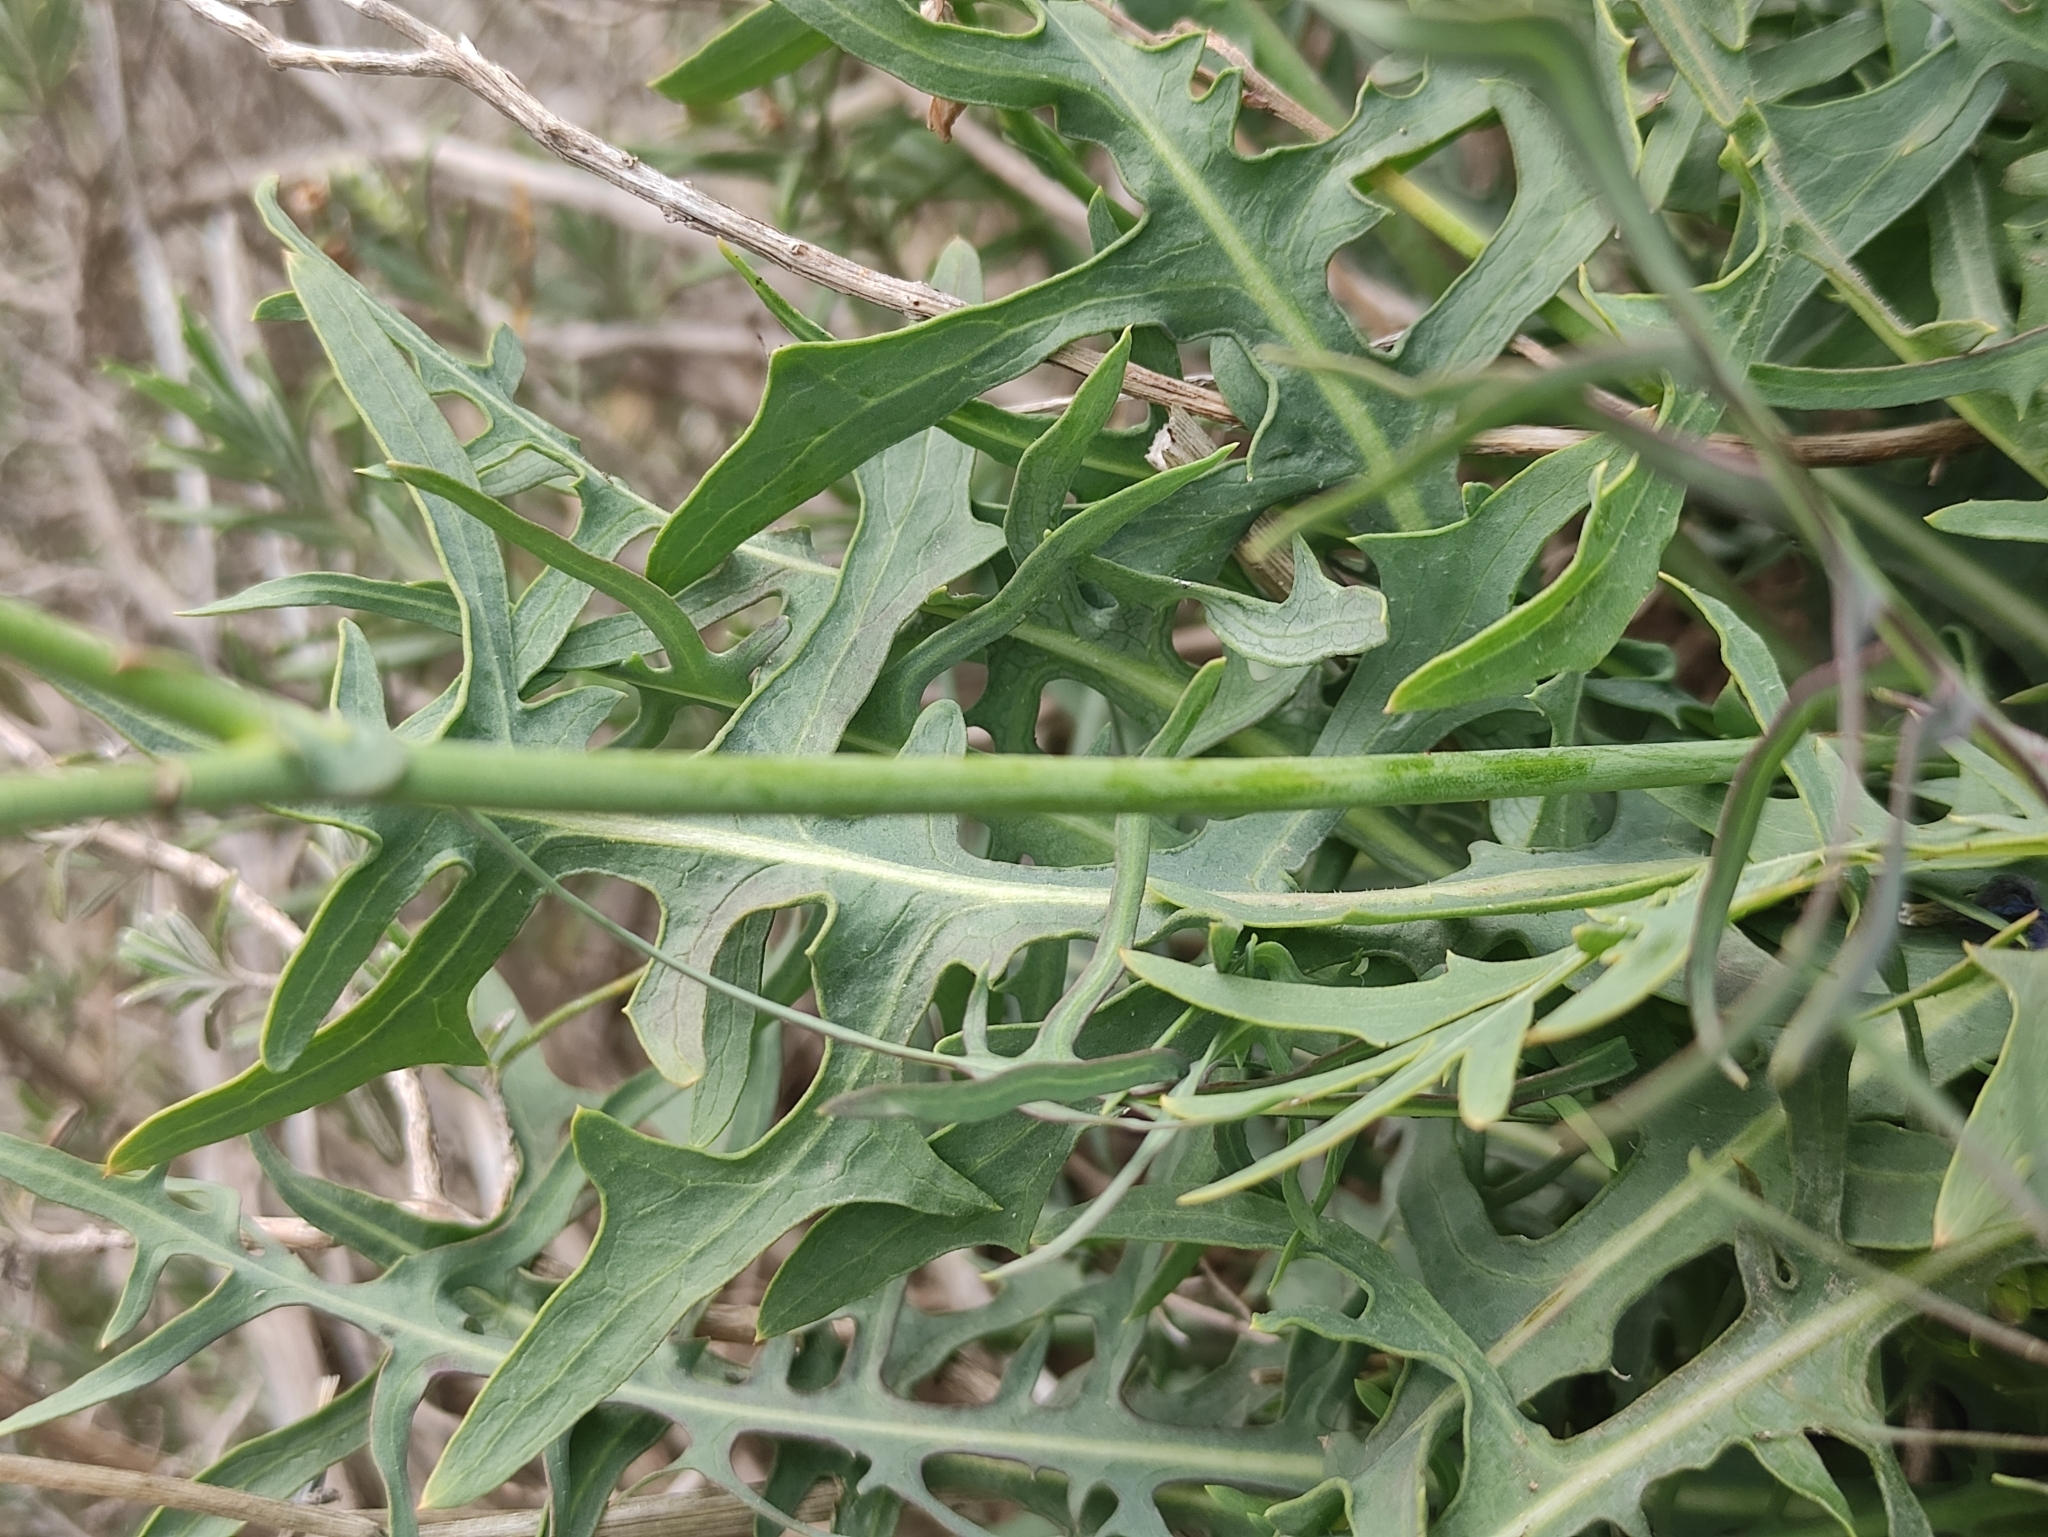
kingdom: Plantae
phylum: Tracheophyta
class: Magnoliopsida
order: Asterales
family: Asteraceae
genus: Lactuca
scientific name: Lactuca perennis
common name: Mountain lettuce
